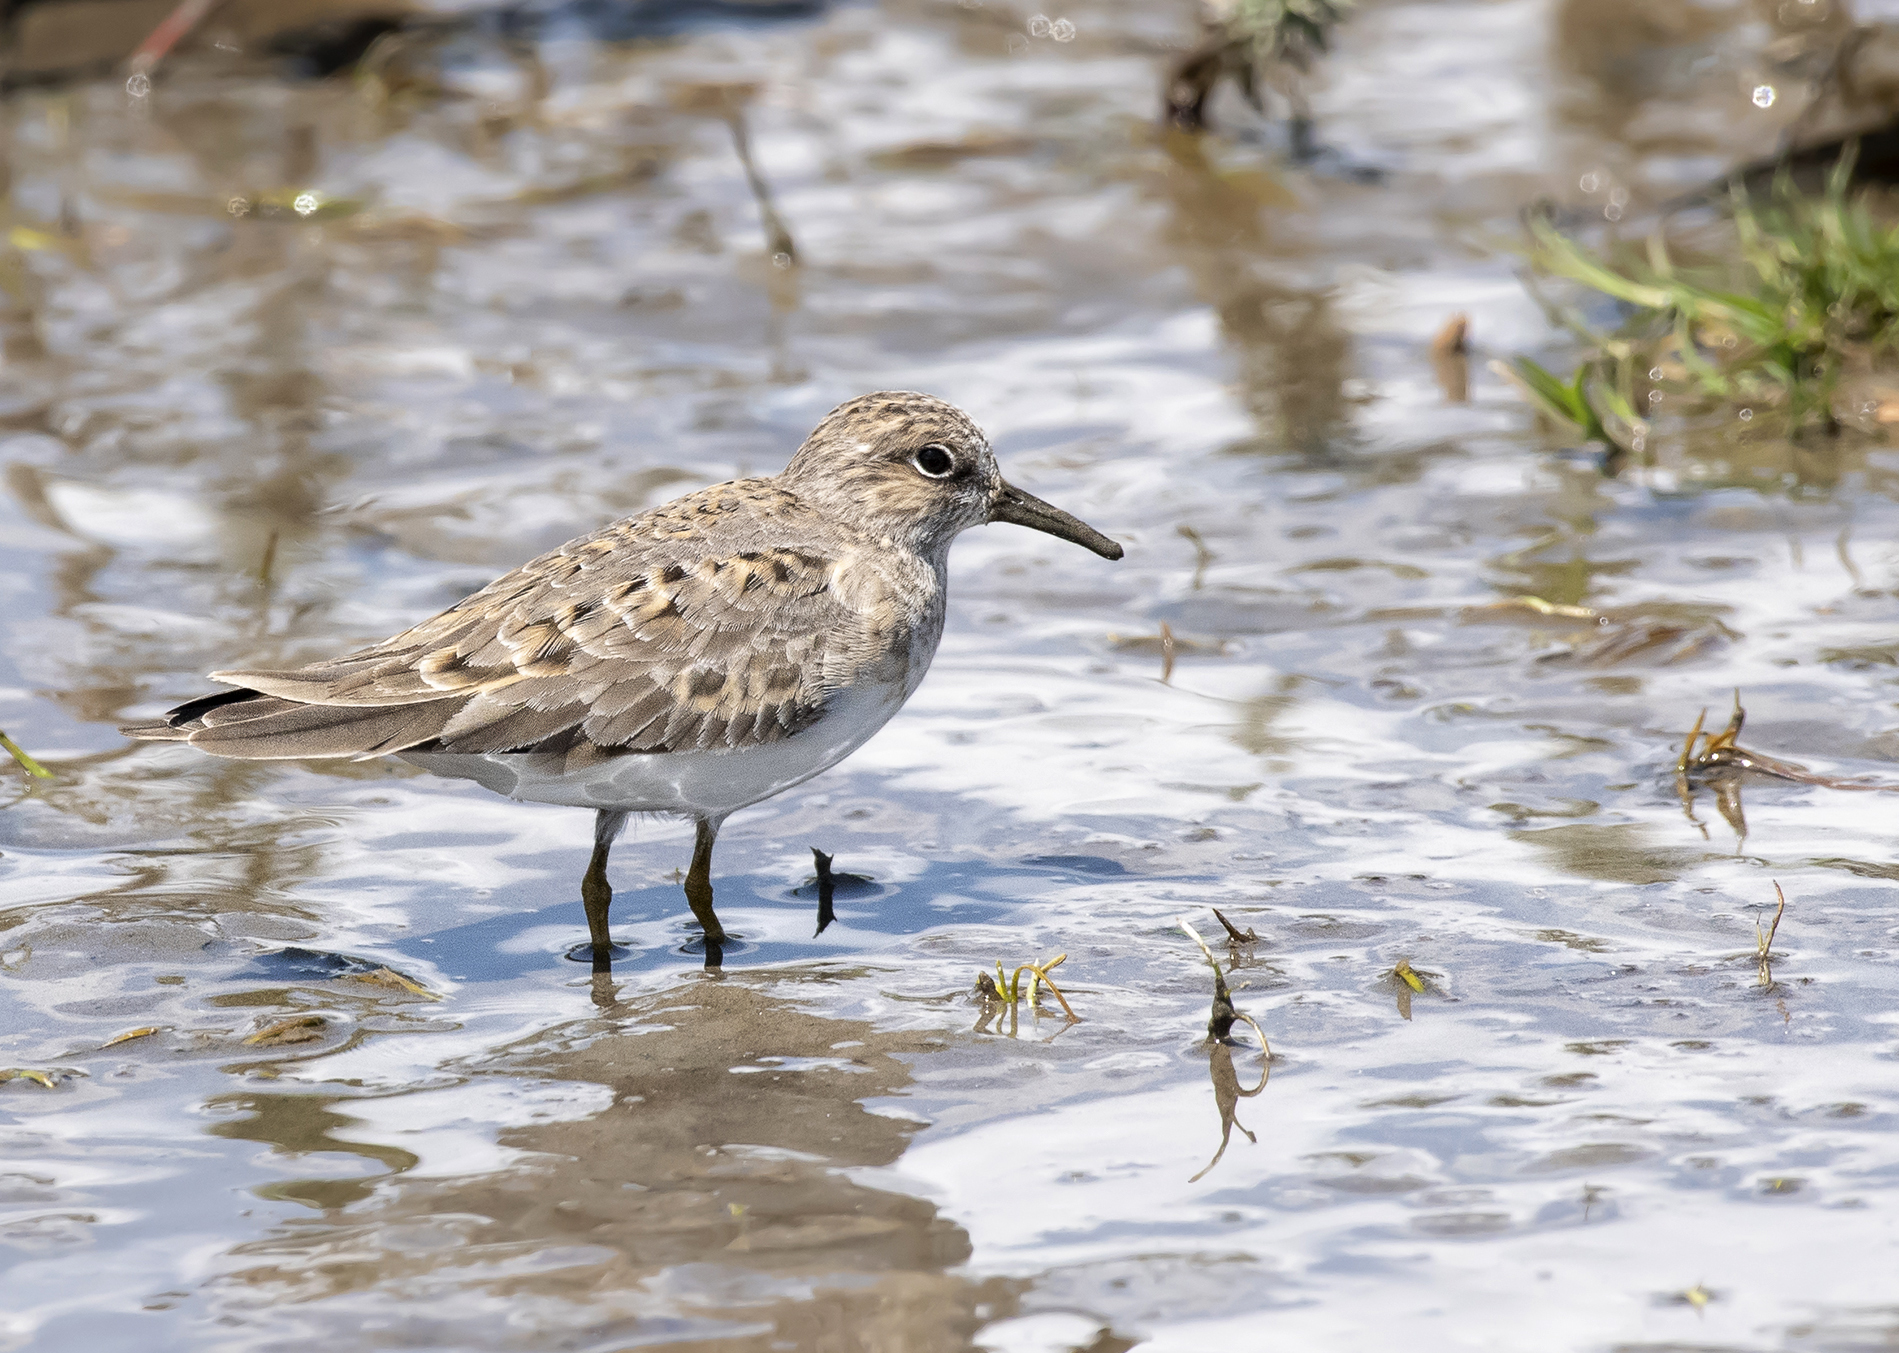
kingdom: Animalia
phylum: Chordata
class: Aves
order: Charadriiformes
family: Scolopacidae
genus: Calidris
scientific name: Calidris temminckii
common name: Temminck's stint
